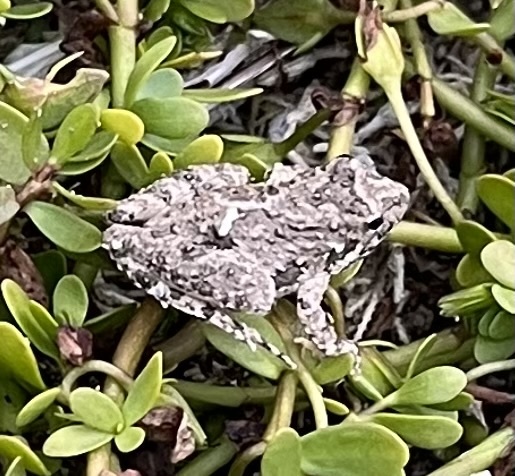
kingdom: Animalia
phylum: Chordata
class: Amphibia
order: Anura
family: Hylidae
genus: Acris
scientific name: Acris blanchardi
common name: Blanchard's cricket frog
